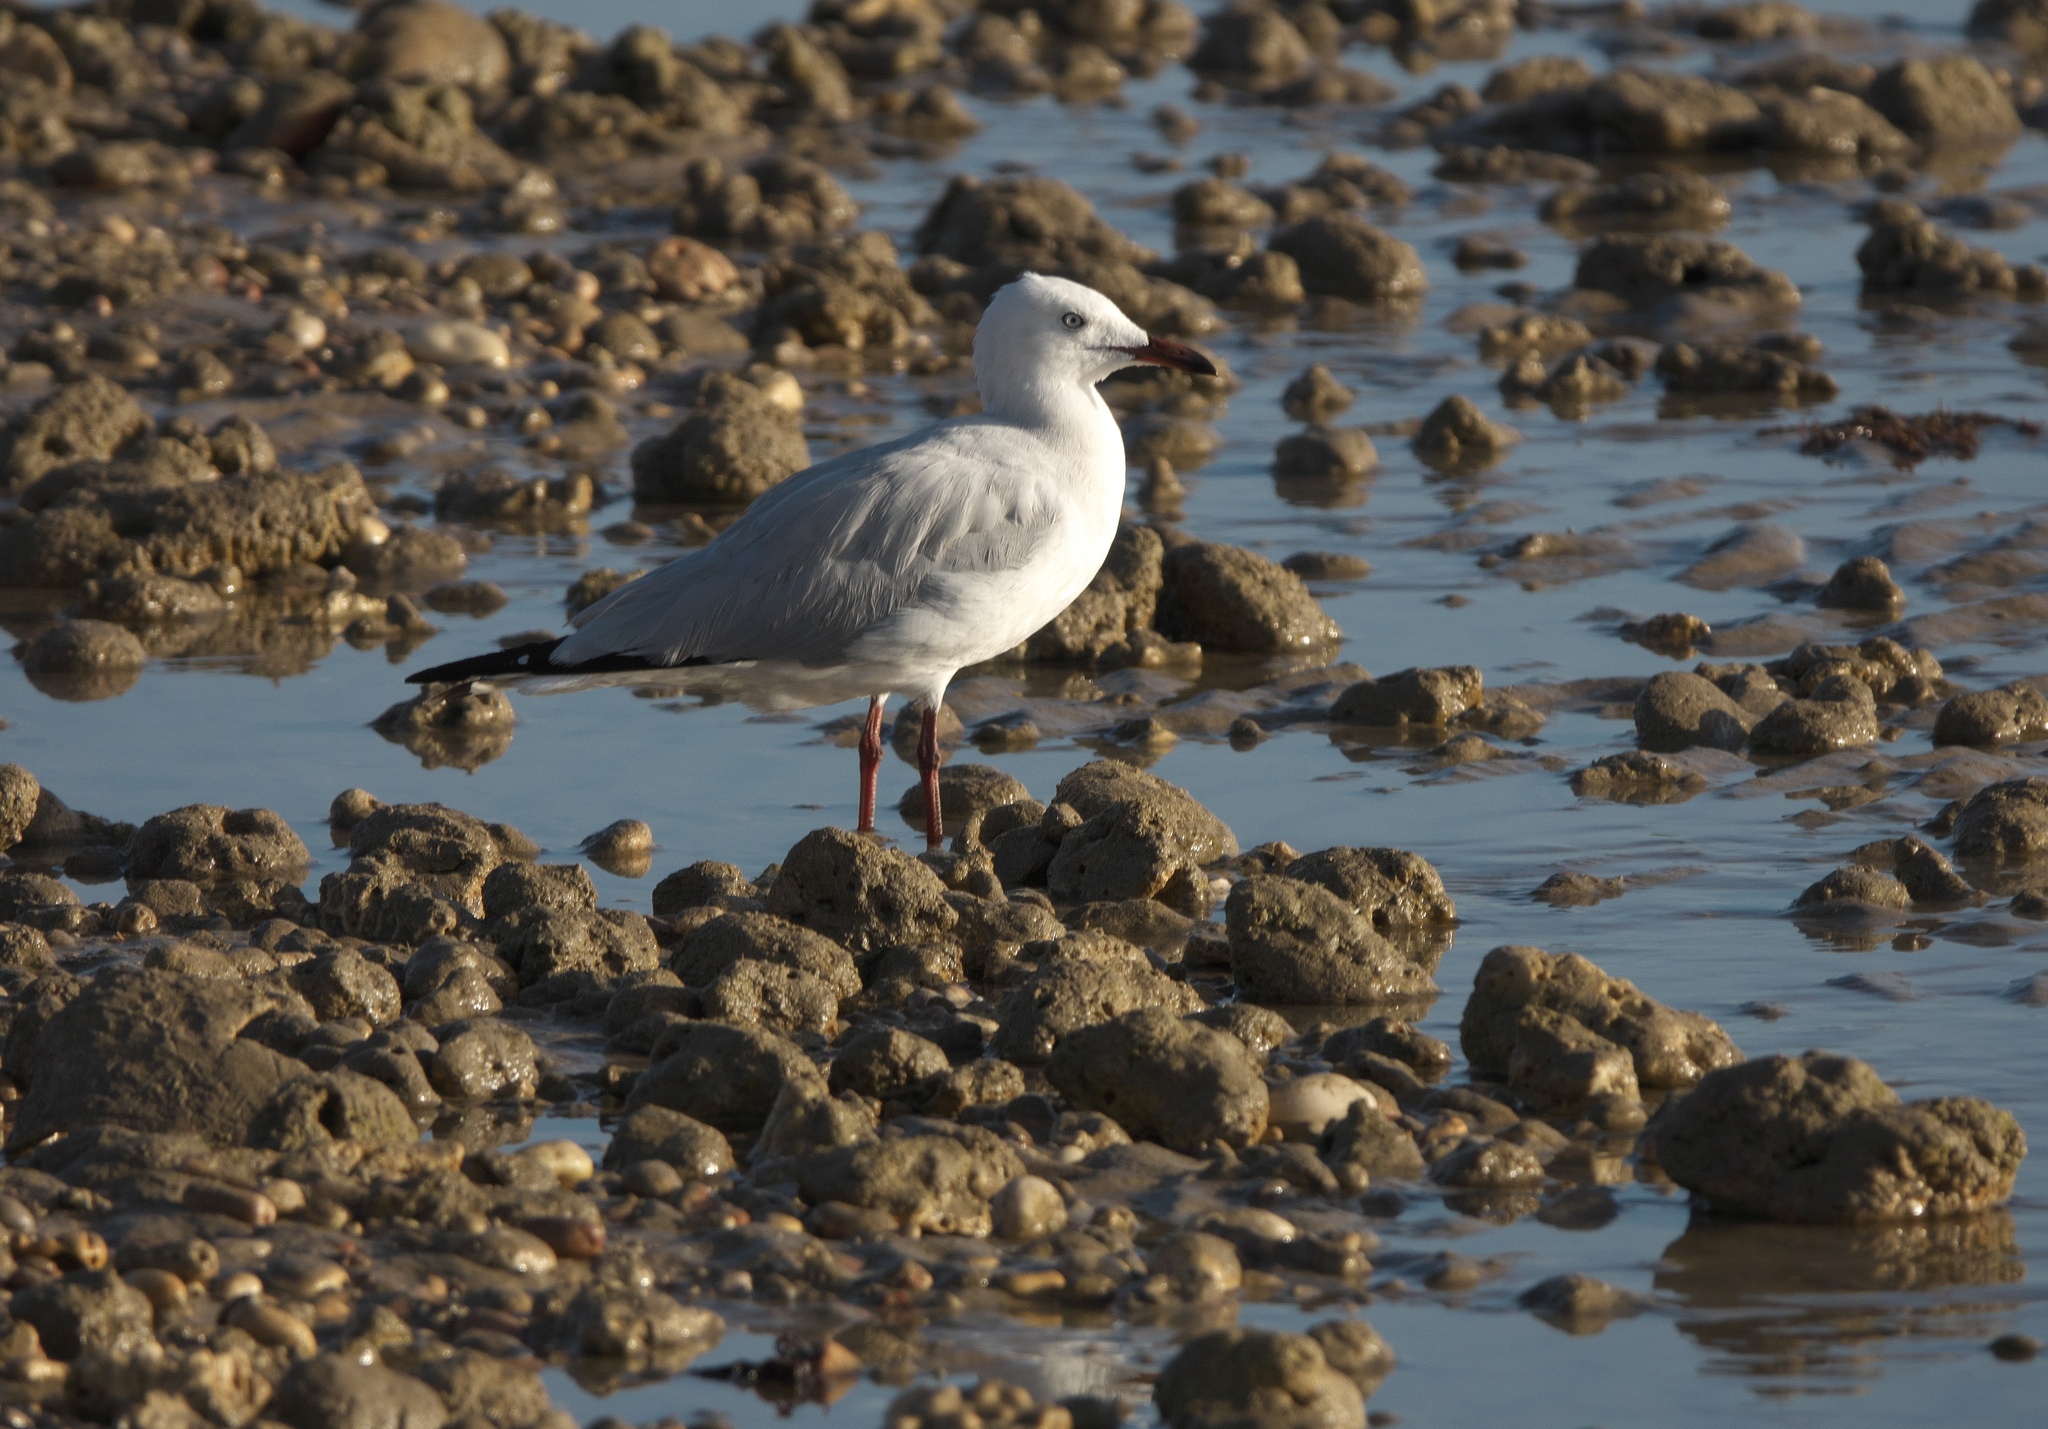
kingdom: Animalia
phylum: Chordata
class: Aves
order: Charadriiformes
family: Laridae
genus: Chroicocephalus
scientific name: Chroicocephalus novaehollandiae
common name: Silver gull
